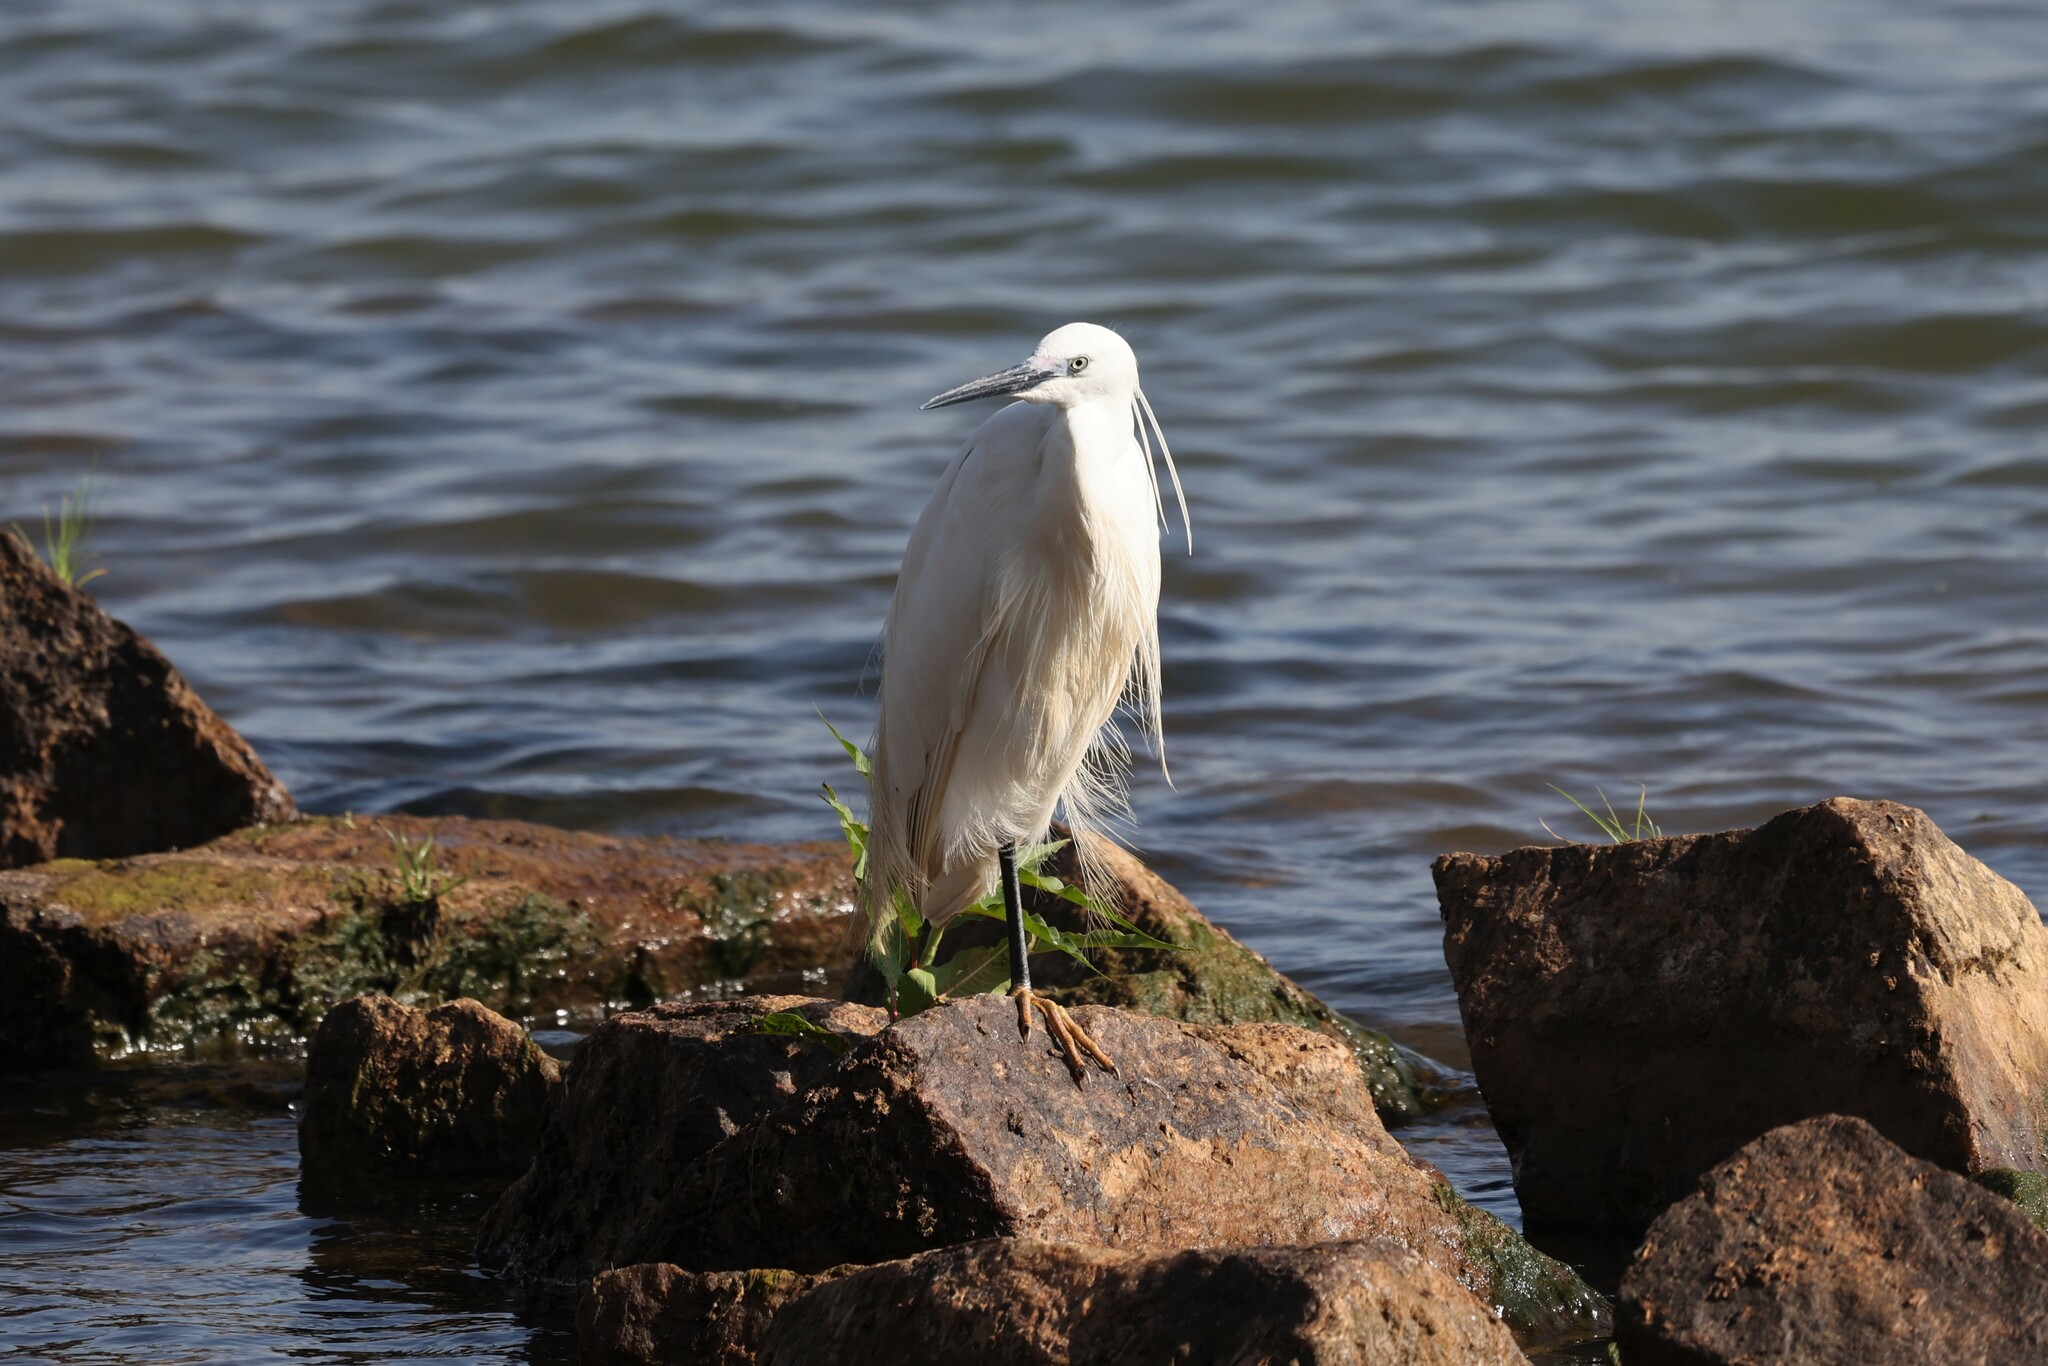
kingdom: Animalia
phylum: Chordata
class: Aves
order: Pelecaniformes
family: Ardeidae
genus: Egretta
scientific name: Egretta garzetta
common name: Little egret
